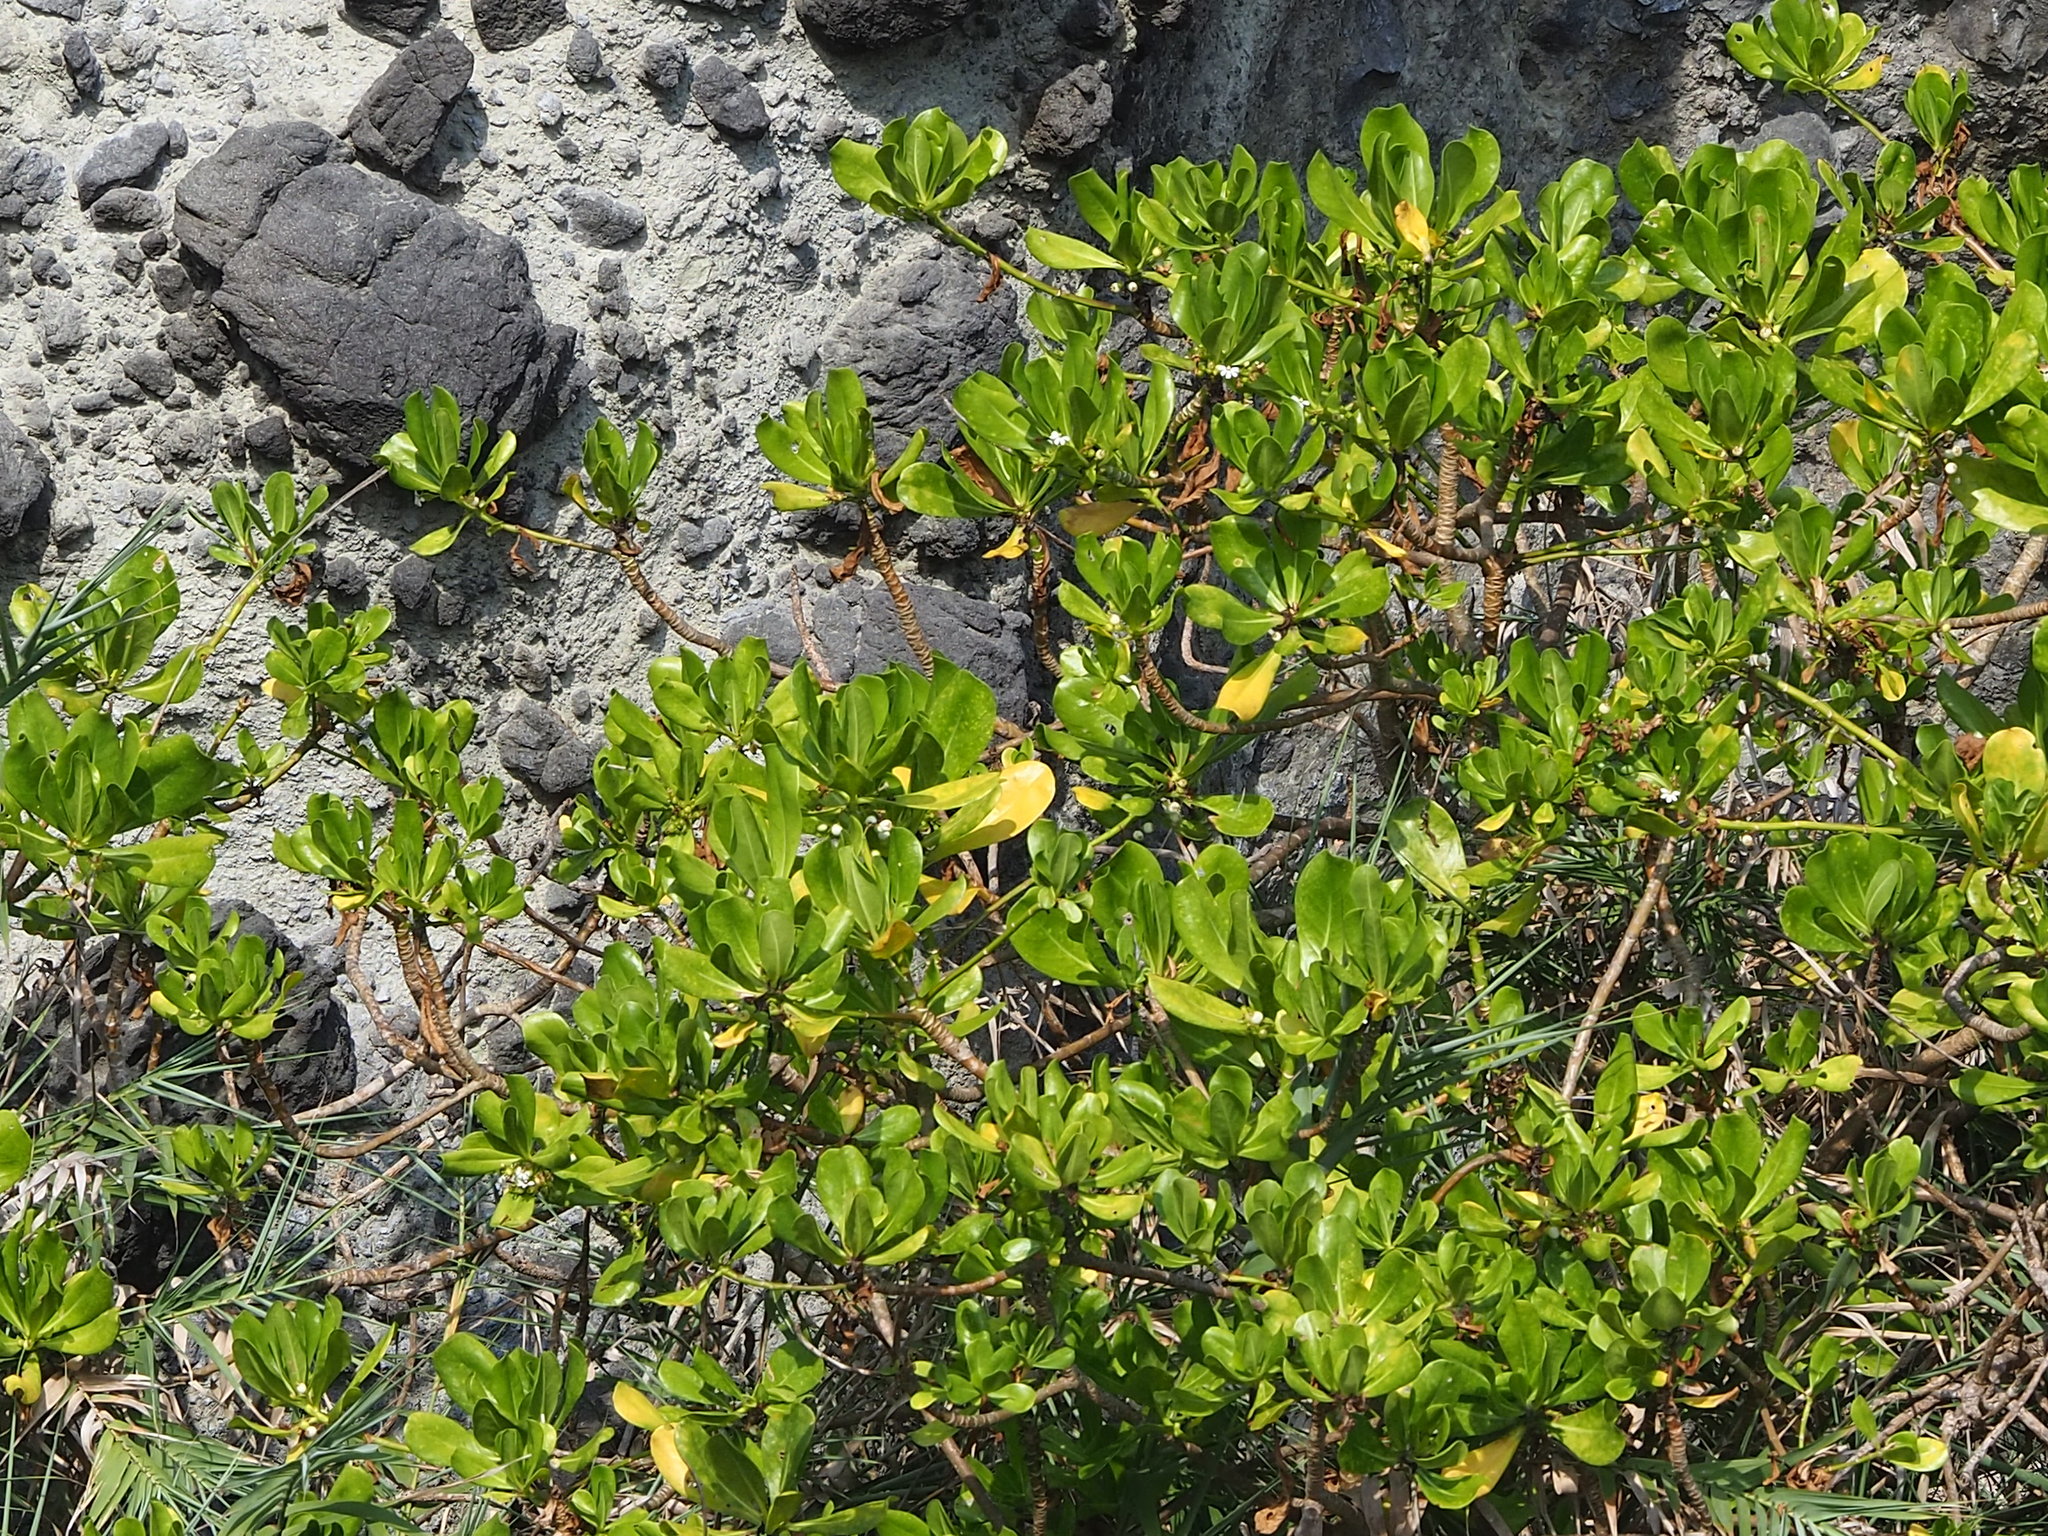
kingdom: Plantae
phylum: Tracheophyta
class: Magnoliopsida
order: Asterales
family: Goodeniaceae
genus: Scaevola
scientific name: Scaevola taccada
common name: Sea lettucetree
